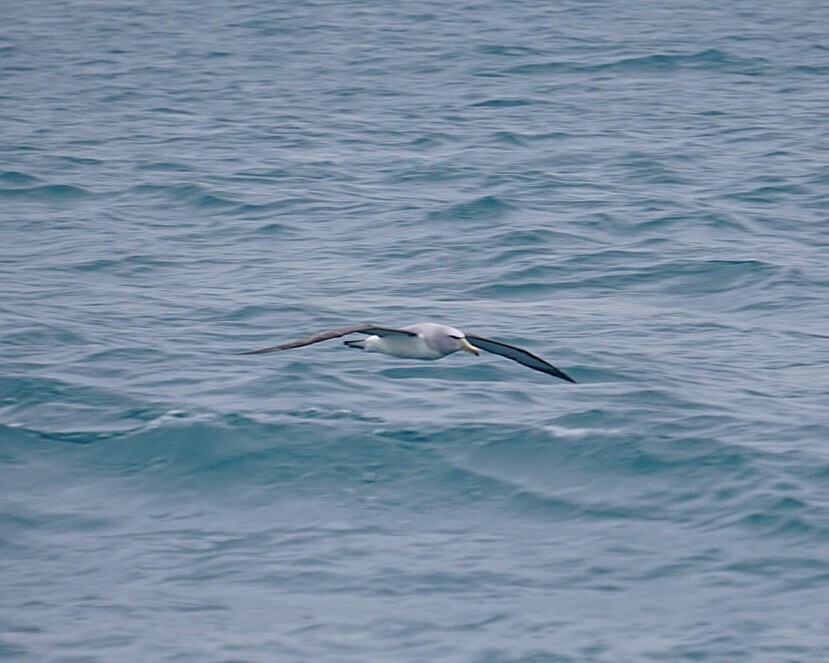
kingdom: Animalia
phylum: Chordata
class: Aves
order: Procellariiformes
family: Diomedeidae
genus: Thalassarche
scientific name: Thalassarche salvini
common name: Salvin's albatross
